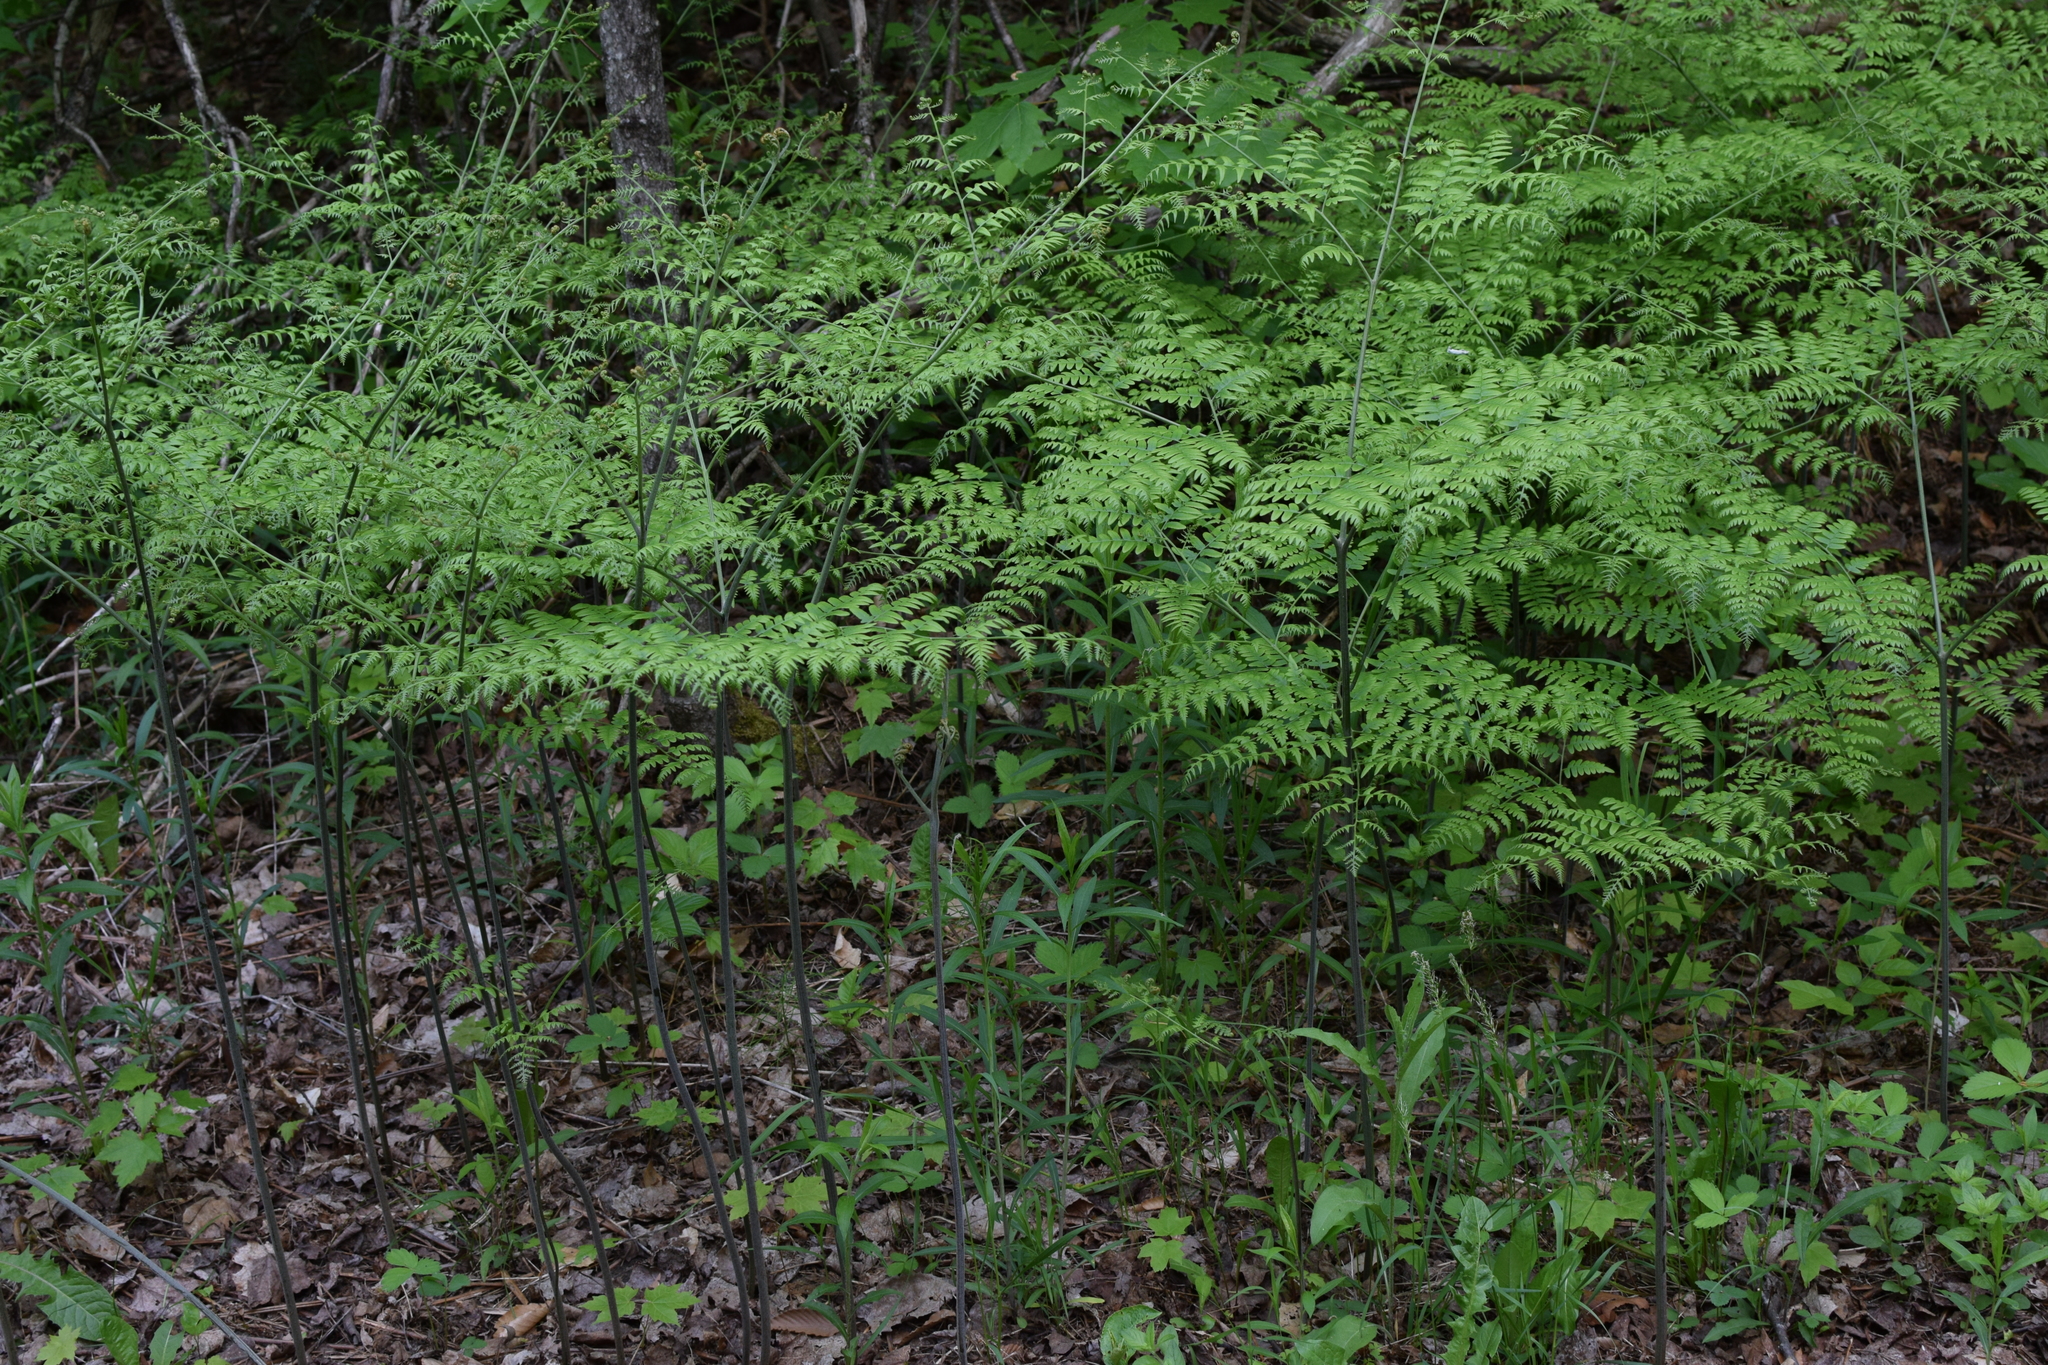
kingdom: Plantae
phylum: Tracheophyta
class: Polypodiopsida
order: Polypodiales
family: Dennstaedtiaceae
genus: Pteridium
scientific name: Pteridium aquilinum
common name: Bracken
